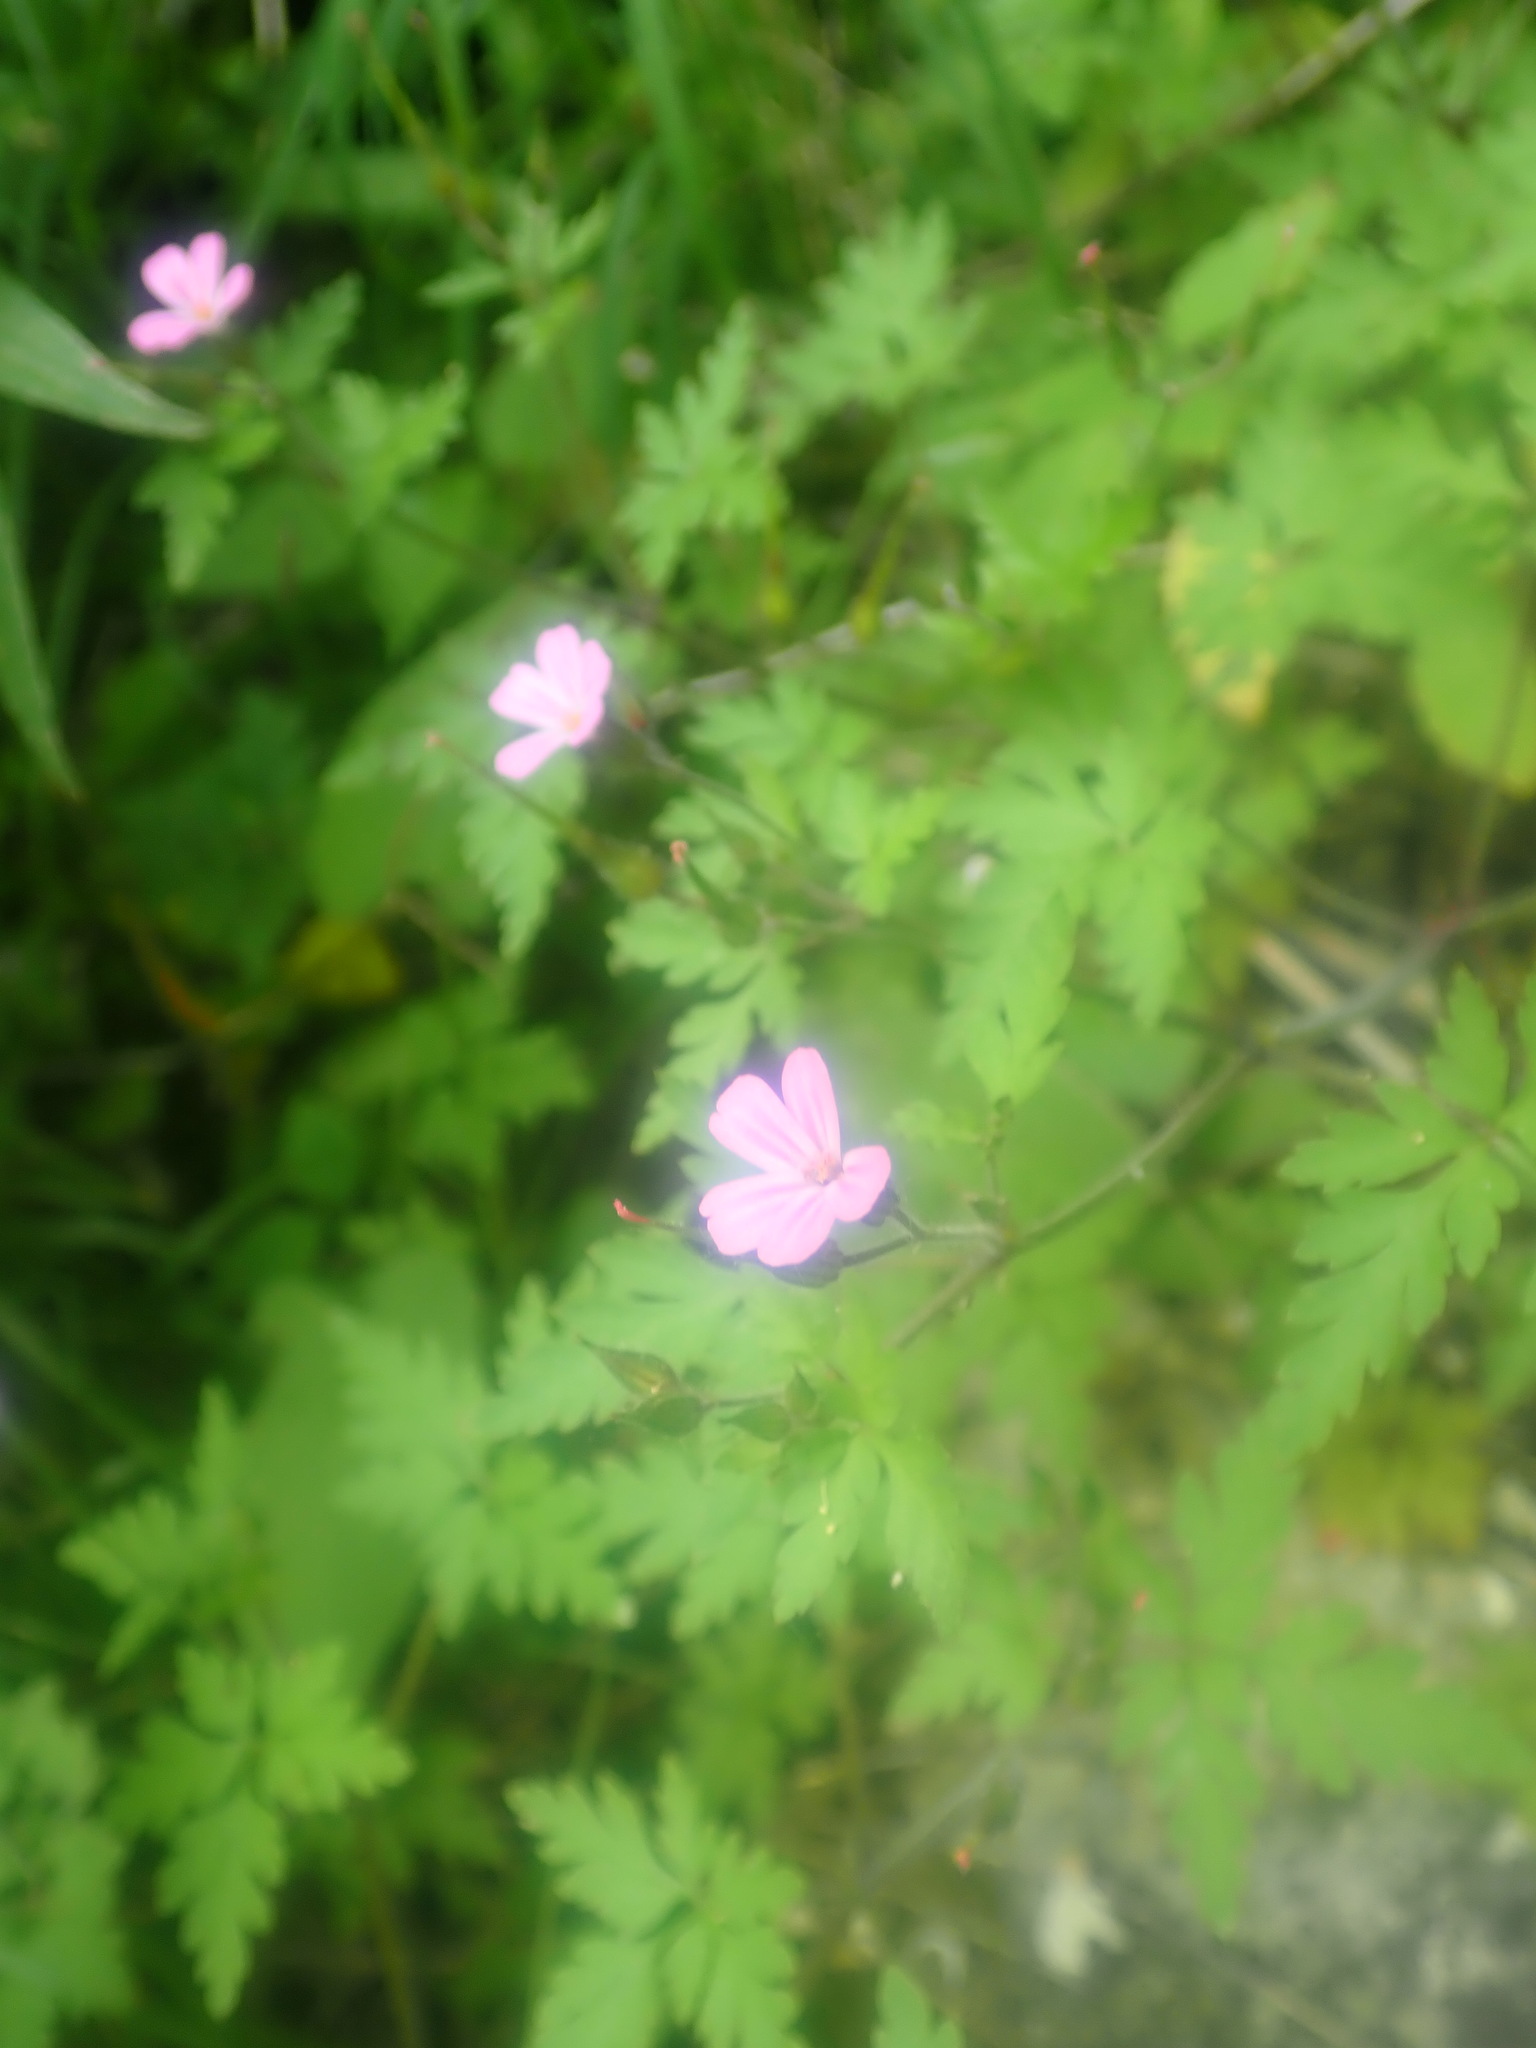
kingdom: Plantae
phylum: Tracheophyta
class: Magnoliopsida
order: Geraniales
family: Geraniaceae
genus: Geranium
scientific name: Geranium robertianum
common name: Herb-robert
